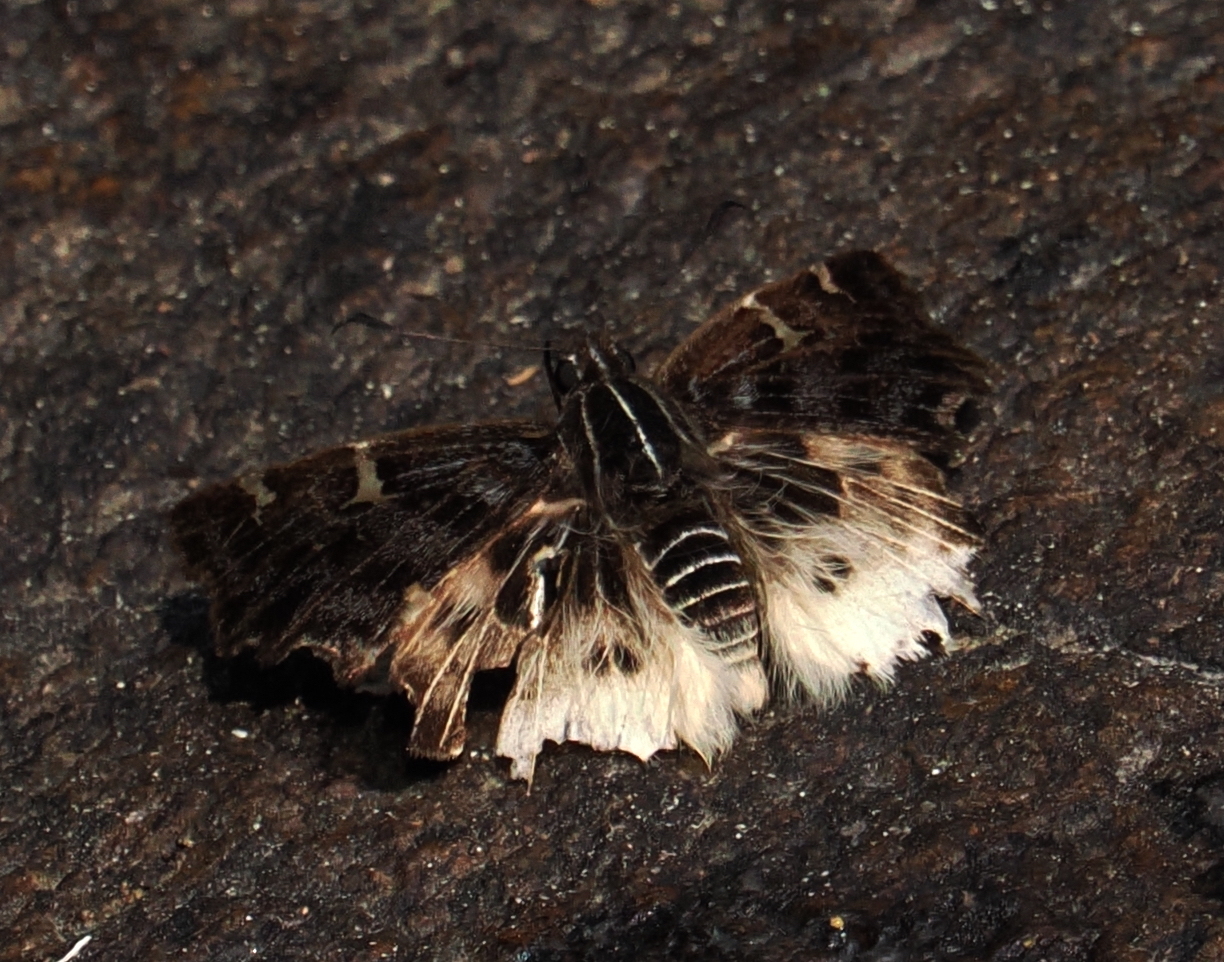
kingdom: Animalia
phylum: Arthropoda
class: Insecta
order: Lepidoptera
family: Hesperiidae
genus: Darpa
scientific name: Darpa hanria
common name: Hairy angle
